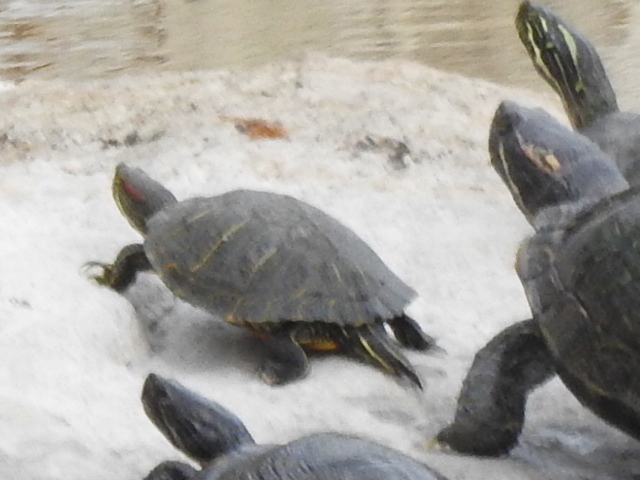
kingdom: Animalia
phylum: Chordata
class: Testudines
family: Emydidae
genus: Trachemys
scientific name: Trachemys scripta
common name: Slider
